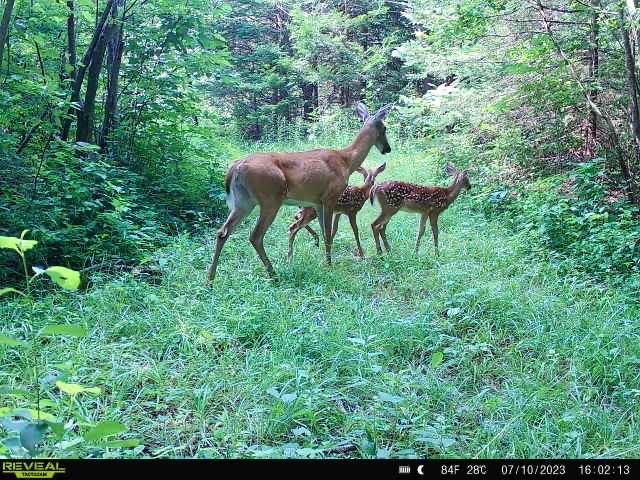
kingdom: Animalia
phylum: Chordata
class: Mammalia
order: Artiodactyla
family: Cervidae
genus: Odocoileus
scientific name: Odocoileus virginianus
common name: White-tailed deer
